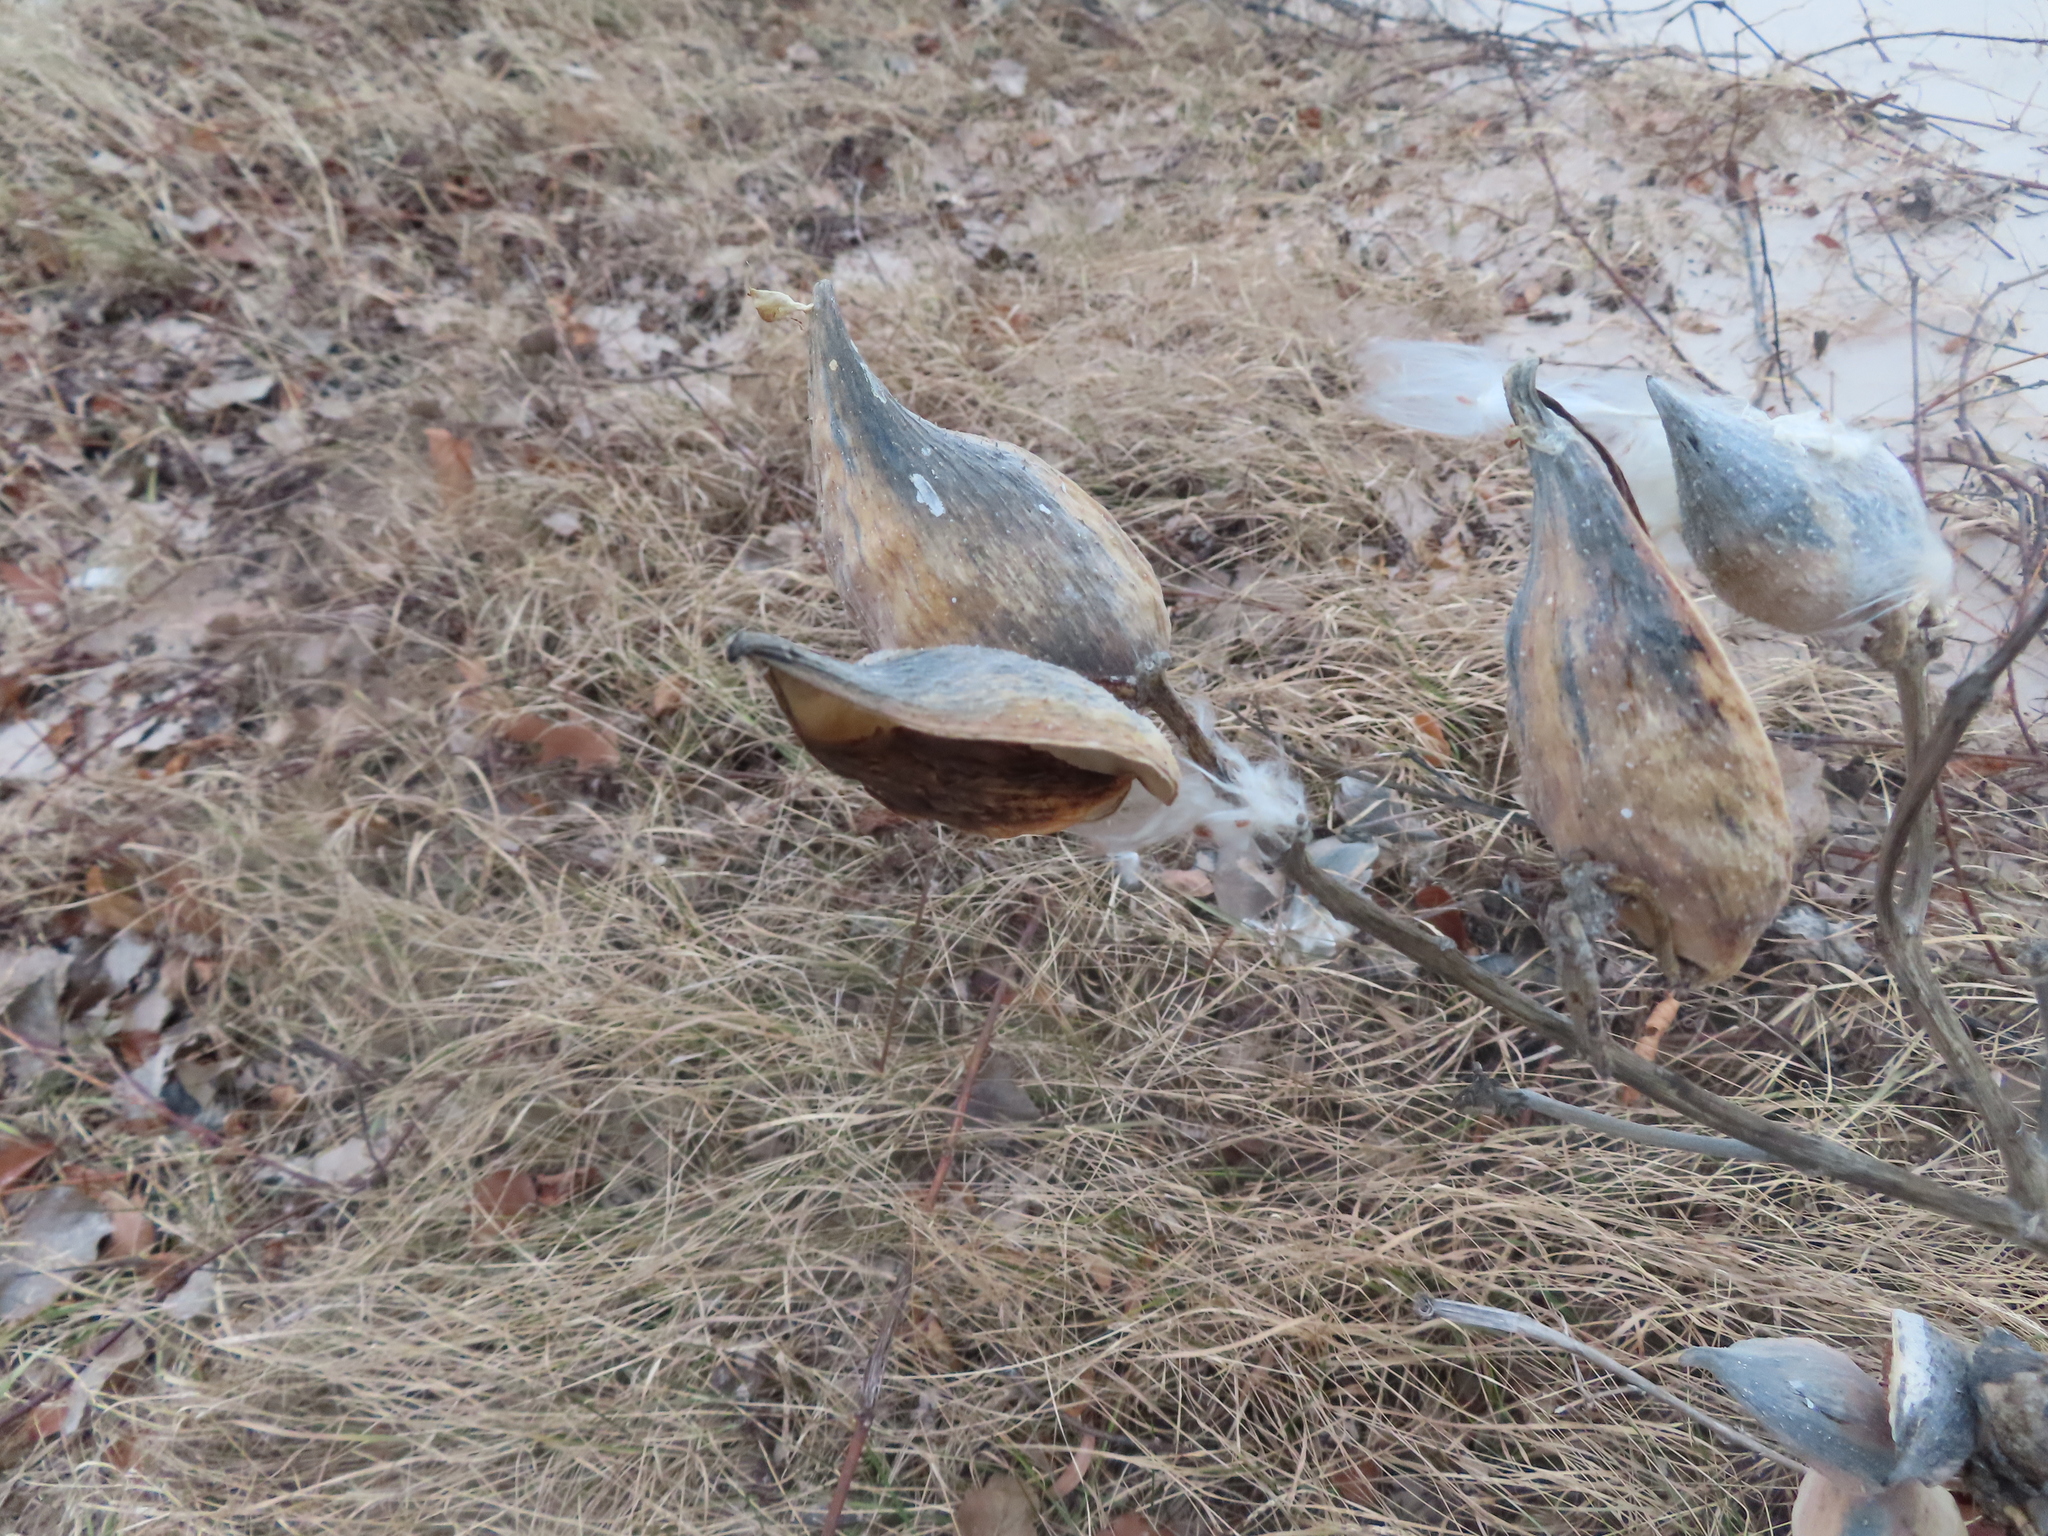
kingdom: Plantae
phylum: Tracheophyta
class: Magnoliopsida
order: Gentianales
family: Apocynaceae
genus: Asclepias
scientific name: Asclepias syriaca
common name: Common milkweed
